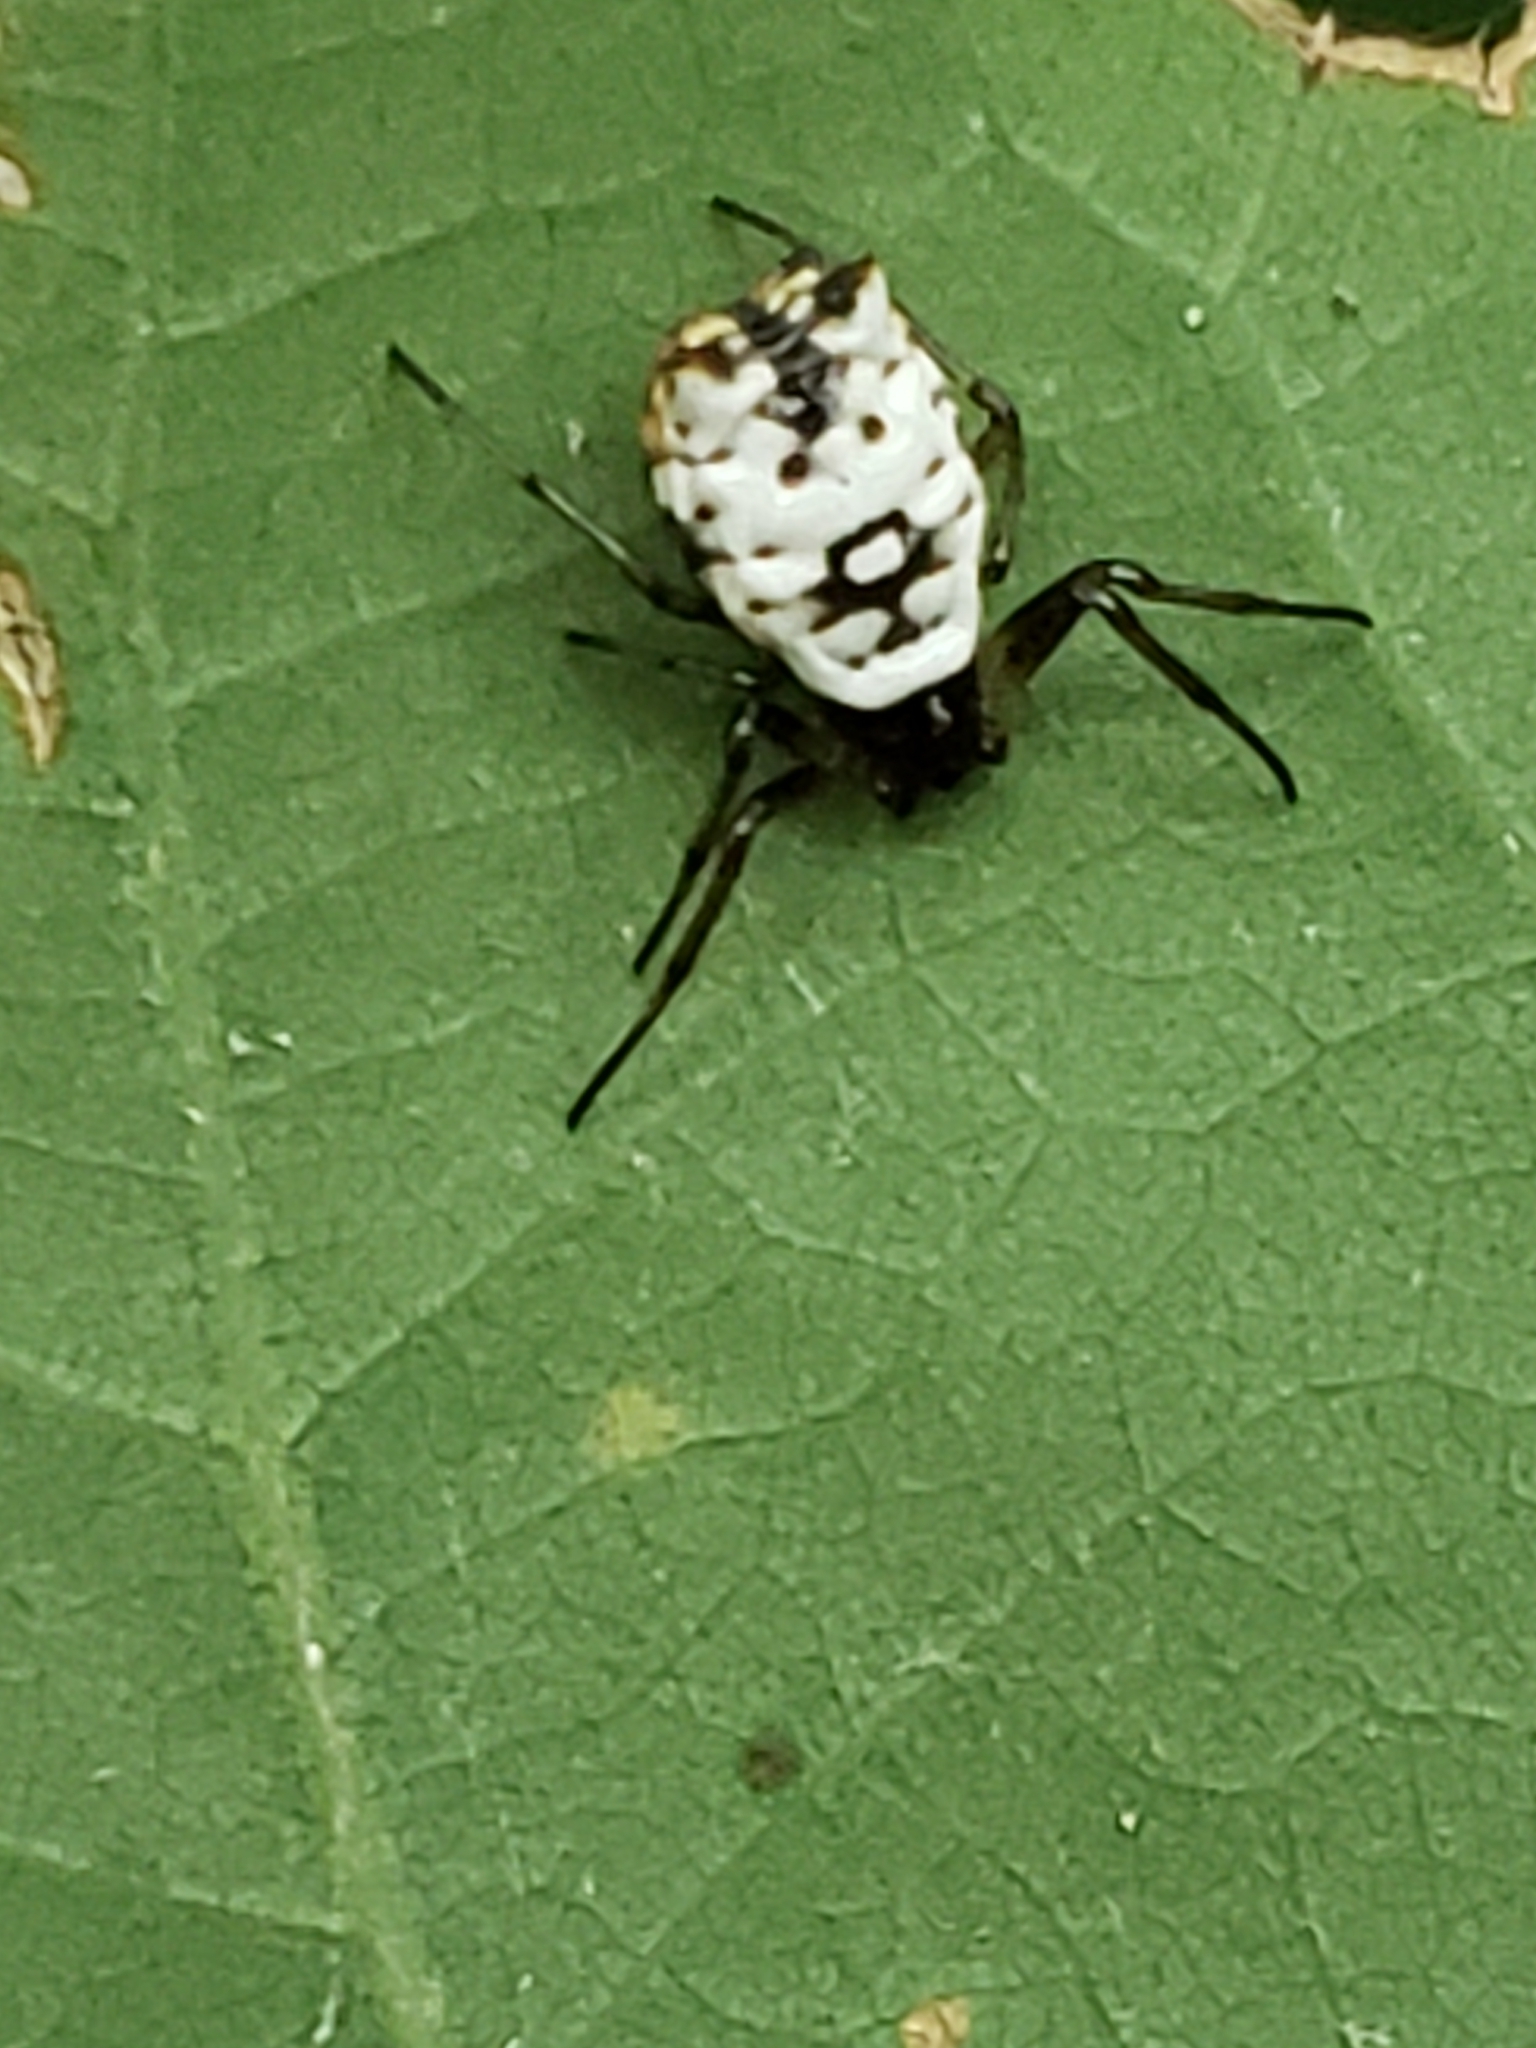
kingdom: Animalia
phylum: Arthropoda
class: Arachnida
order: Araneae
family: Araneidae
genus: Micrathena
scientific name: Micrathena mitrata
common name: Orb weavers
